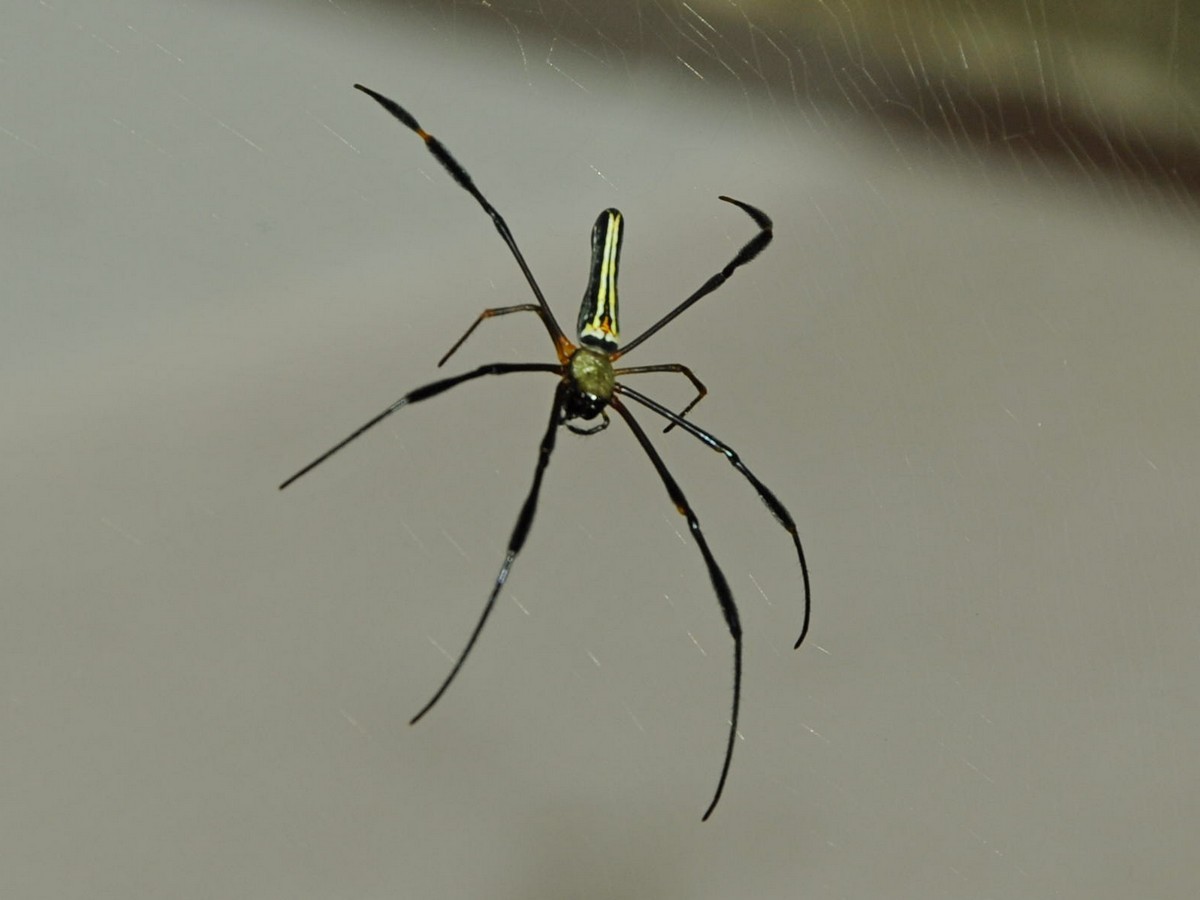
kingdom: Animalia
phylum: Arthropoda
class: Arachnida
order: Araneae
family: Araneidae
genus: Nephila
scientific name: Nephila pilipes
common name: Giant golden orb weaver
